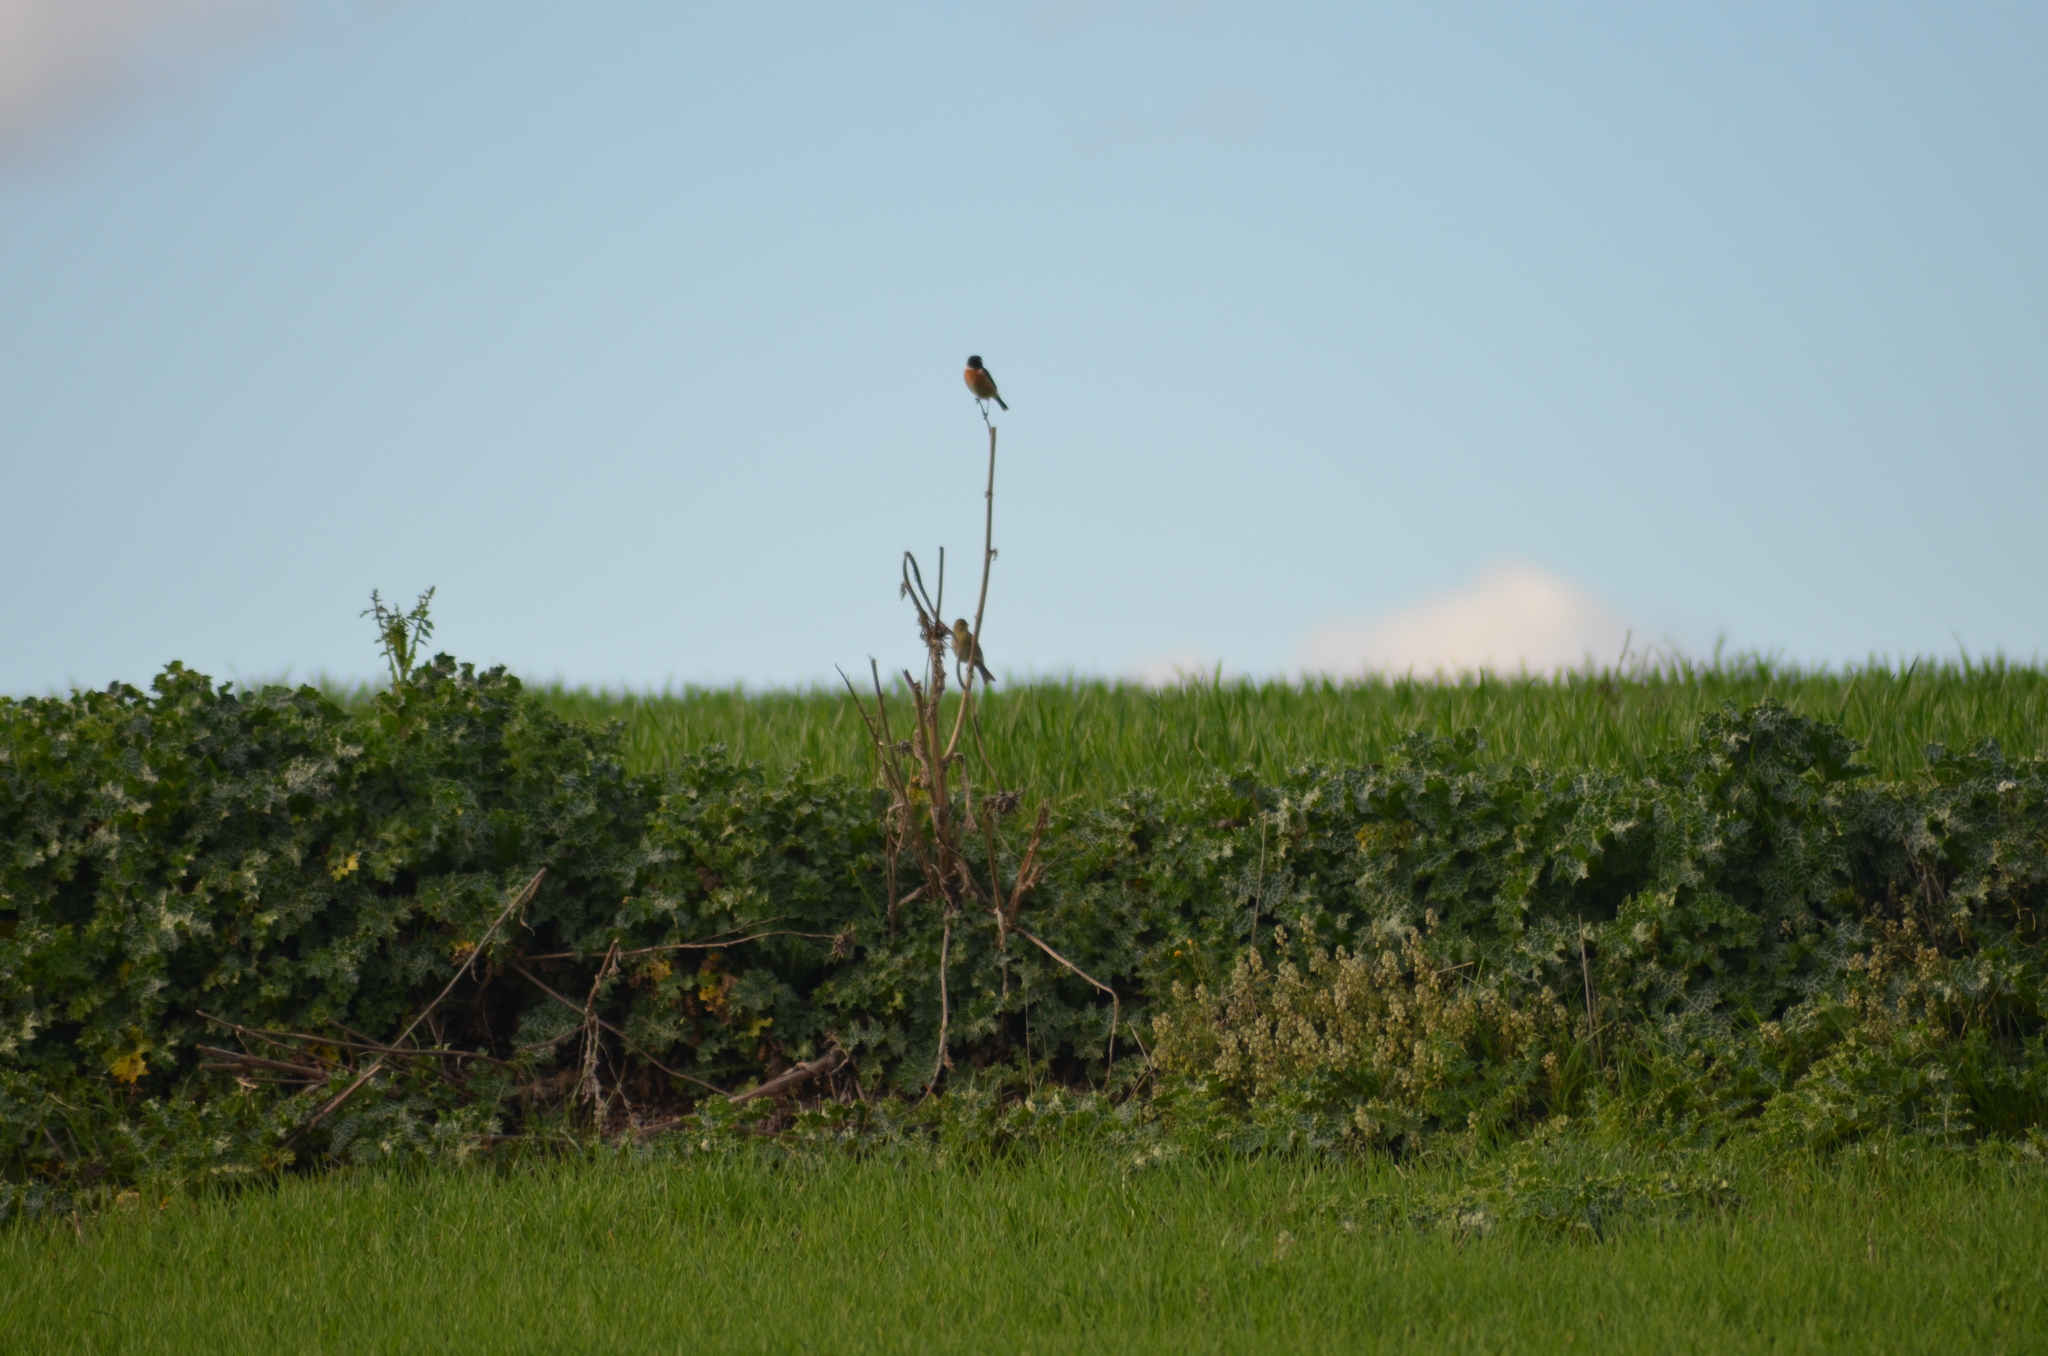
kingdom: Animalia
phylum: Chordata
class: Aves
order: Passeriformes
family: Fringillidae
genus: Serinus
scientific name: Serinus serinus
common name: European serin
